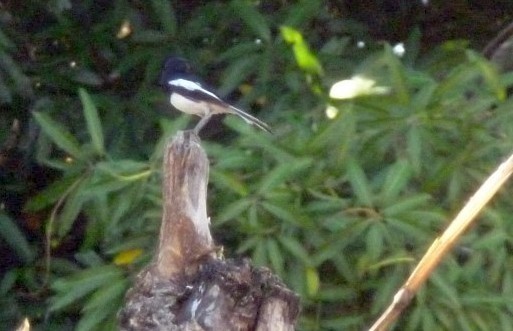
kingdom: Animalia
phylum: Chordata
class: Aves
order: Passeriformes
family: Muscicapidae
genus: Copsychus
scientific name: Copsychus albospecularis
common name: Madagascar magpie-robin
